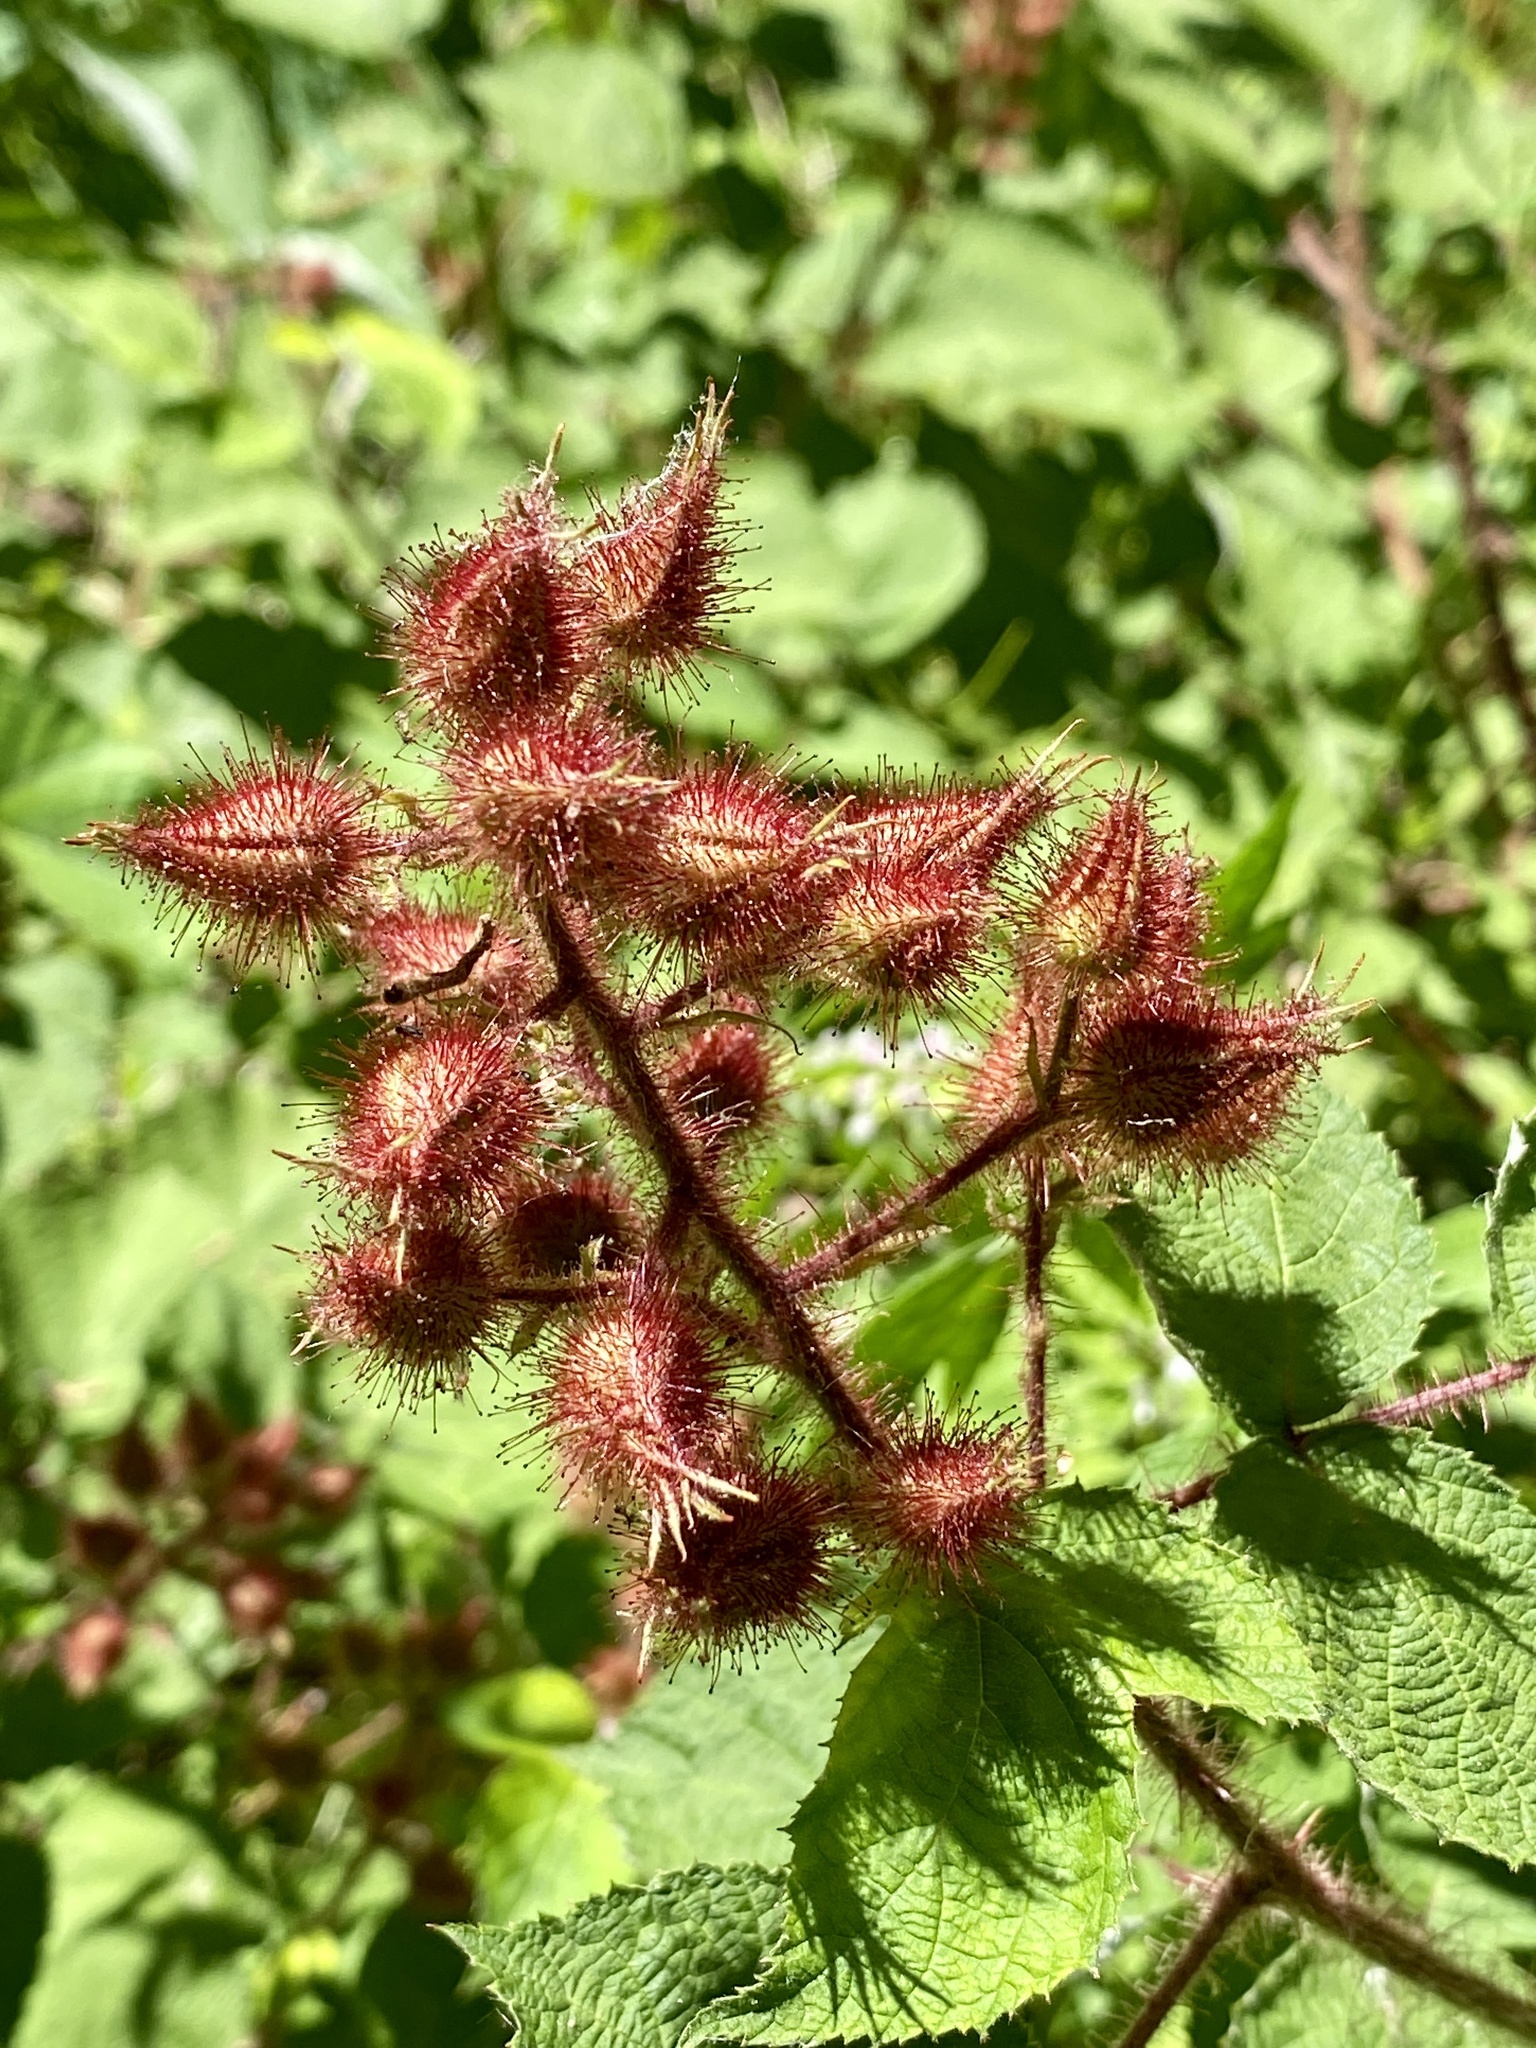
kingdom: Plantae
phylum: Tracheophyta
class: Magnoliopsida
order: Rosales
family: Rosaceae
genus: Rubus
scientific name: Rubus phoenicolasius
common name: Japanese wineberry
